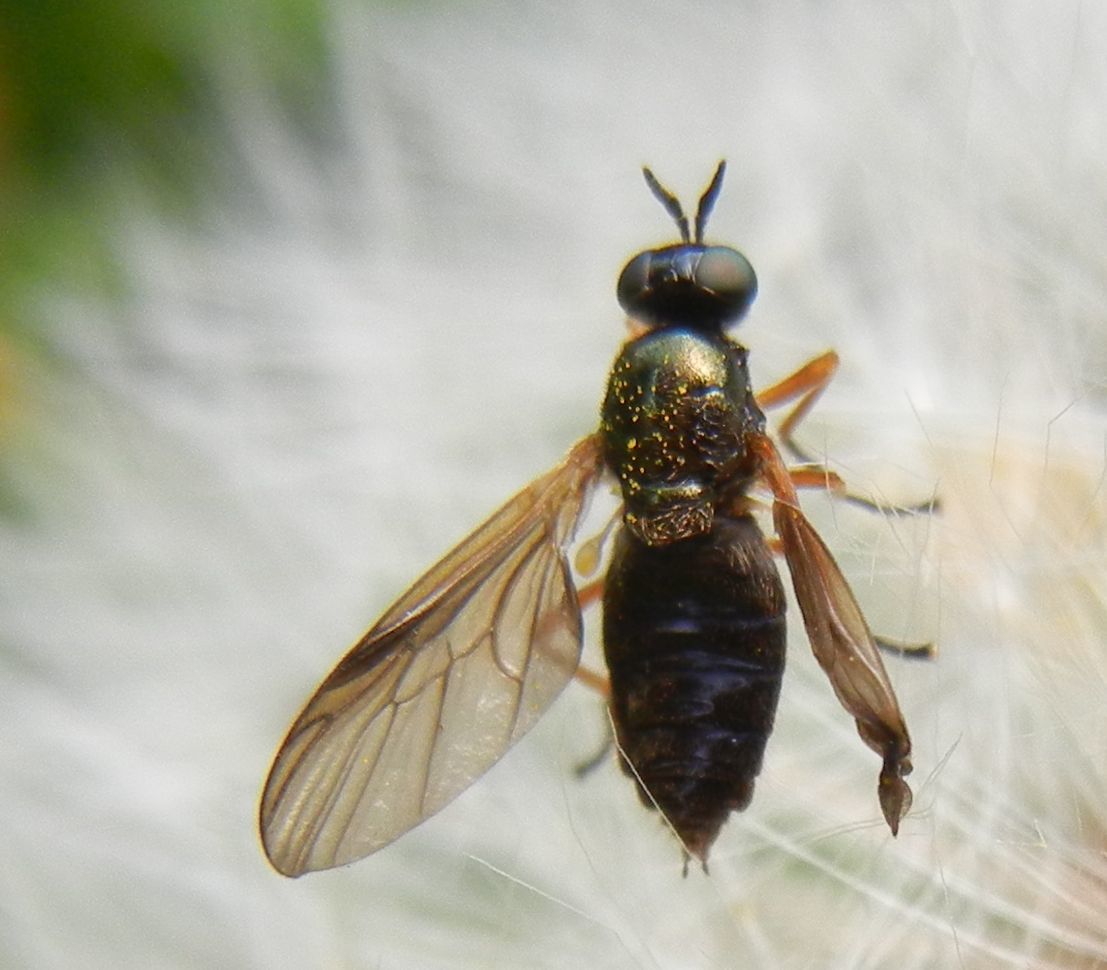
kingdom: Animalia
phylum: Arthropoda
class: Insecta
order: Diptera
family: Stratiomyidae
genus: Beris
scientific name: Beris chalybata
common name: Murky-legged black legionnaire
